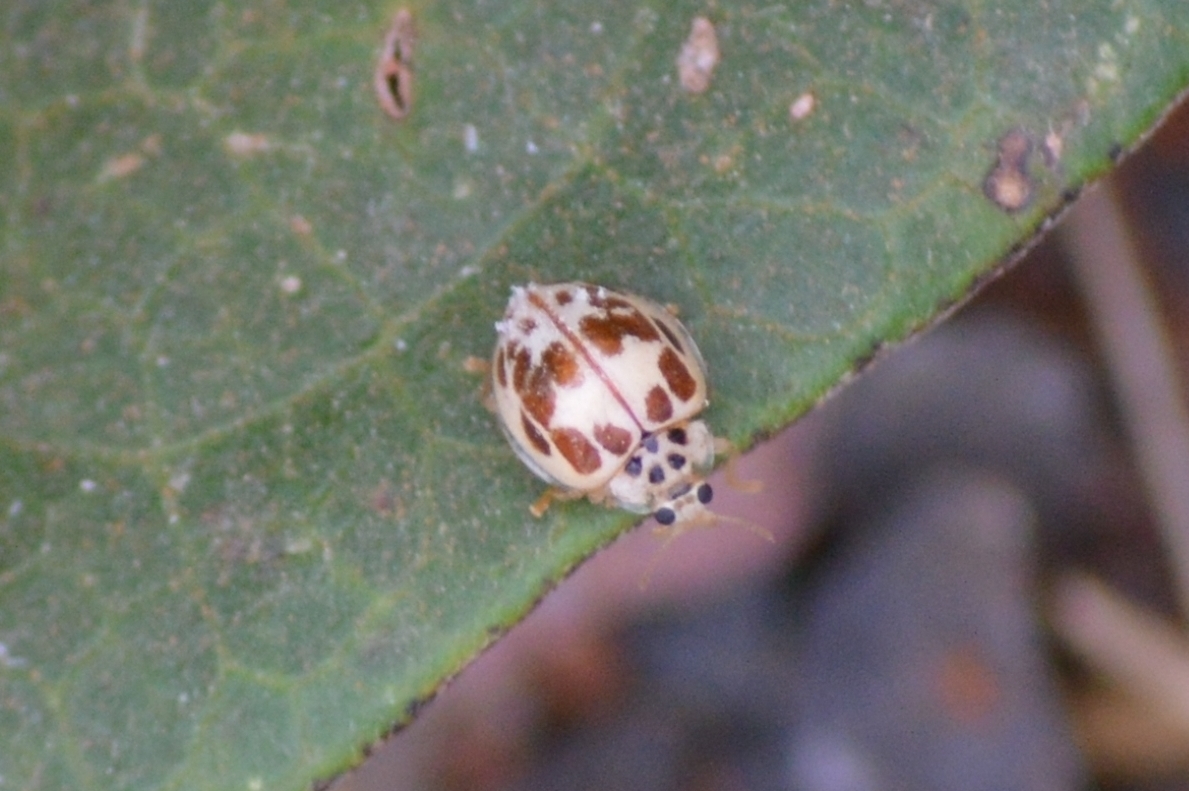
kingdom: Animalia
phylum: Arthropoda
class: Insecta
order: Coleoptera
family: Coccinellidae
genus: Psyllobora
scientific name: Psyllobora confluens
